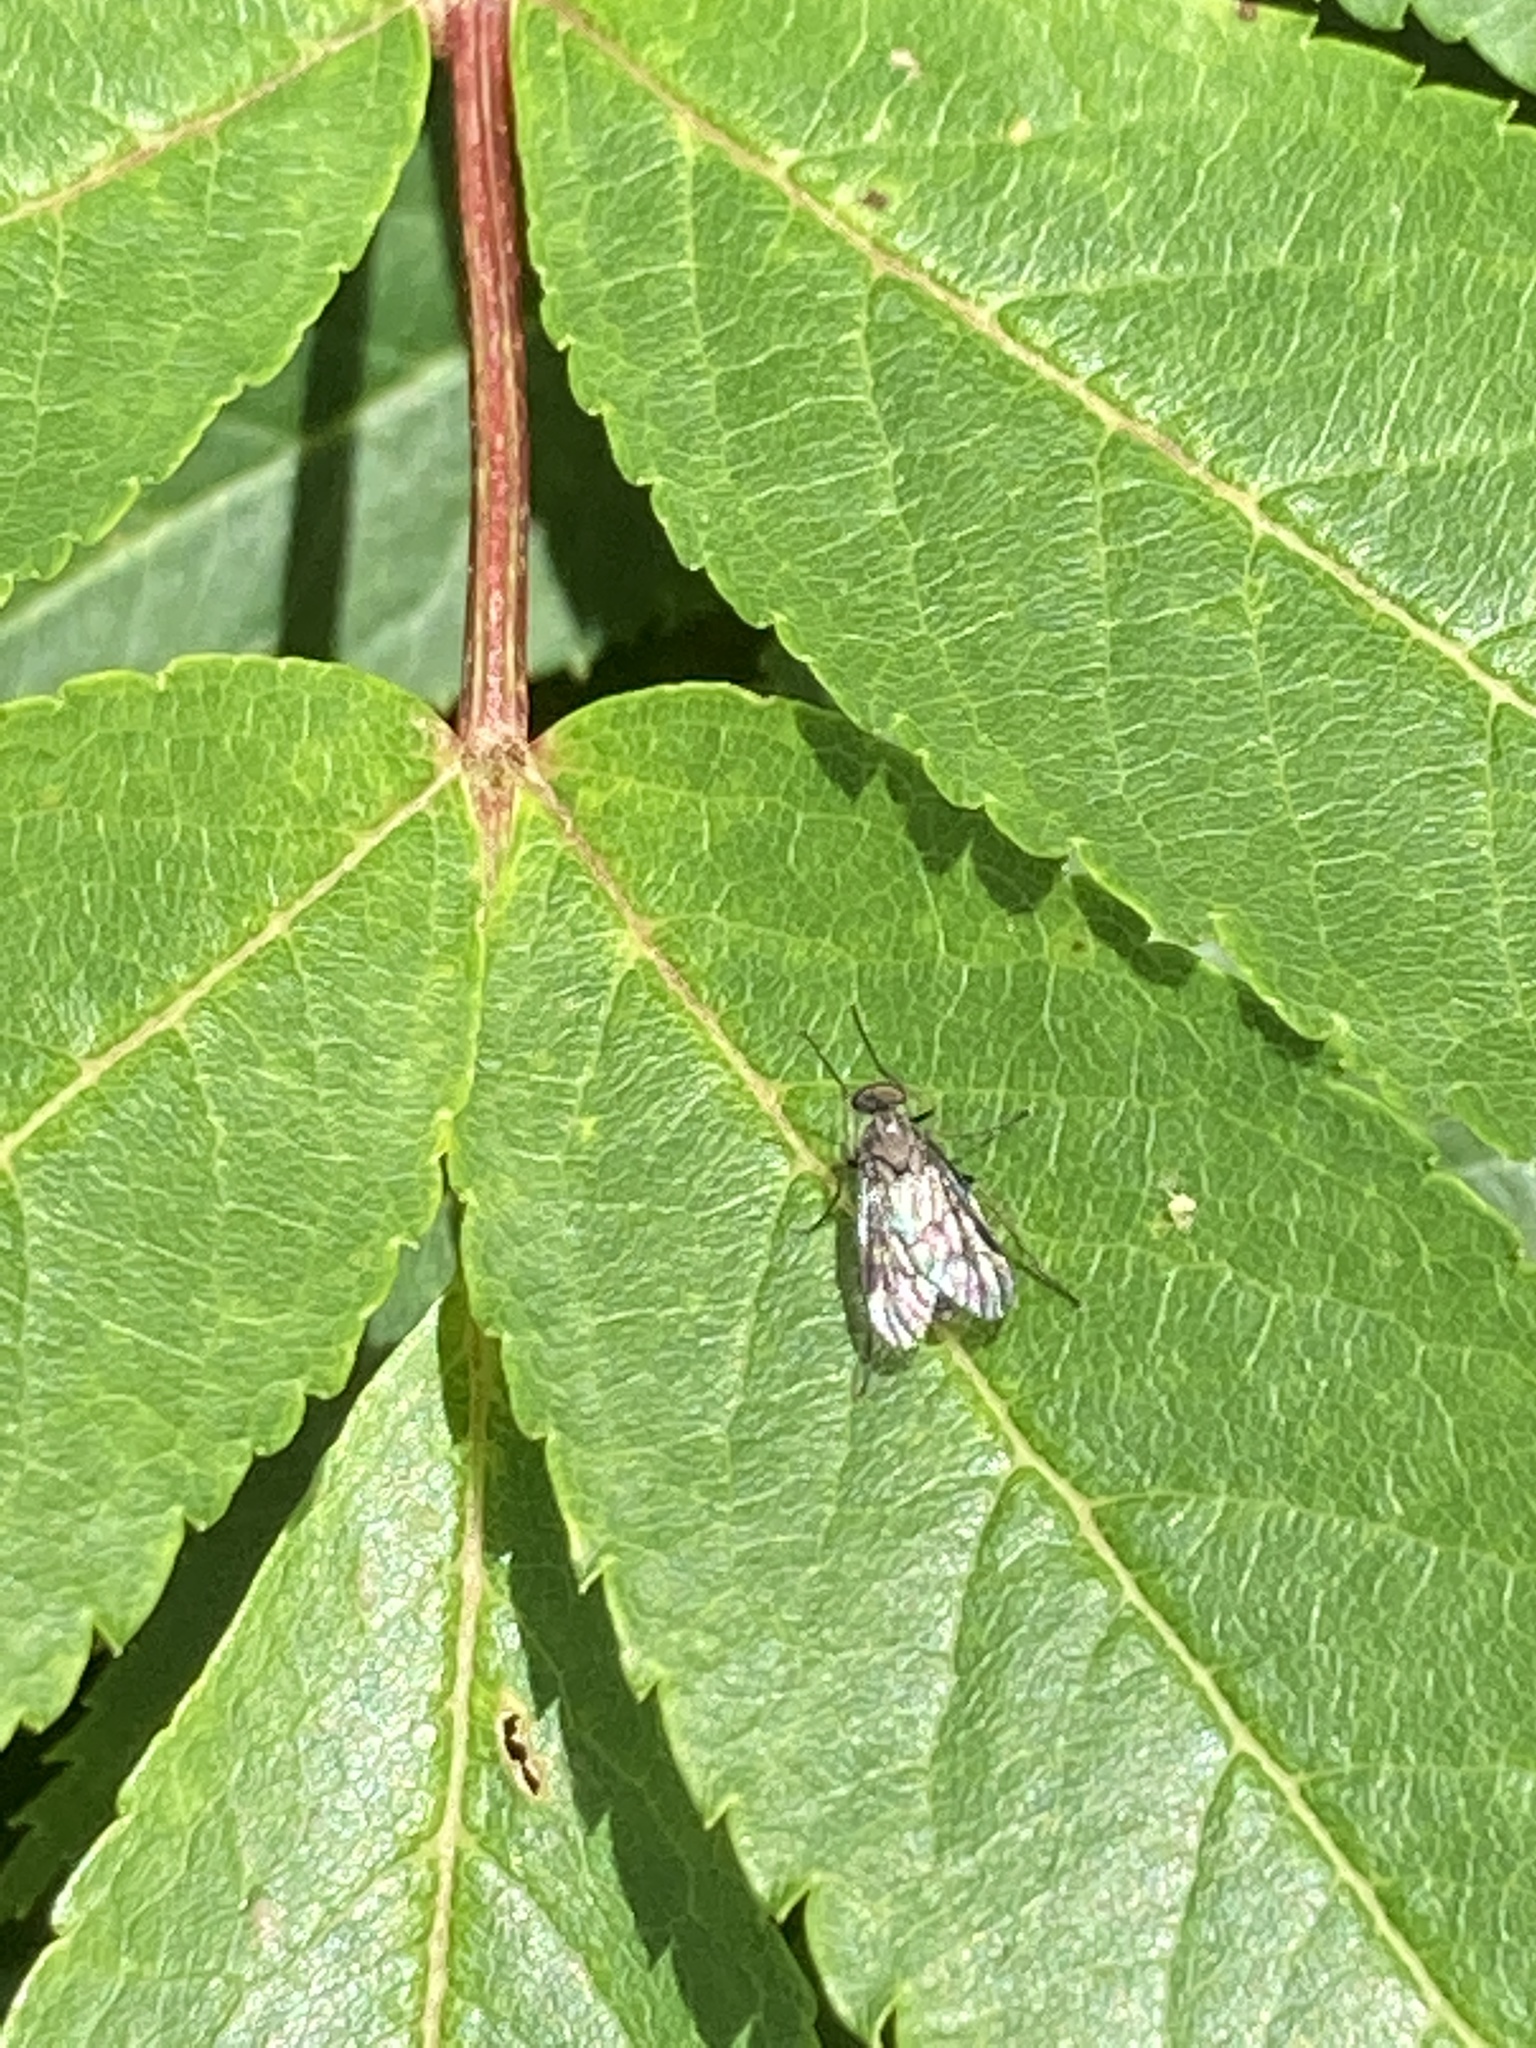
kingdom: Animalia
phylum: Arthropoda
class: Insecta
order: Diptera
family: Rhagionidae
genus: Rhagio
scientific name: Rhagio mystaceus
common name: Common snipe fly
